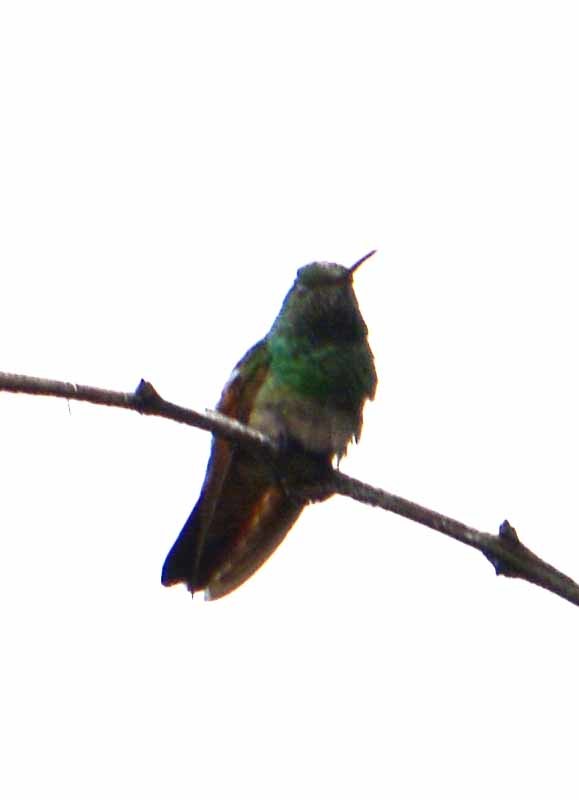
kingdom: Animalia
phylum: Chordata
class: Aves
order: Apodiformes
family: Trochilidae
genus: Saucerottia
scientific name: Saucerottia beryllina
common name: Berylline hummingbird
